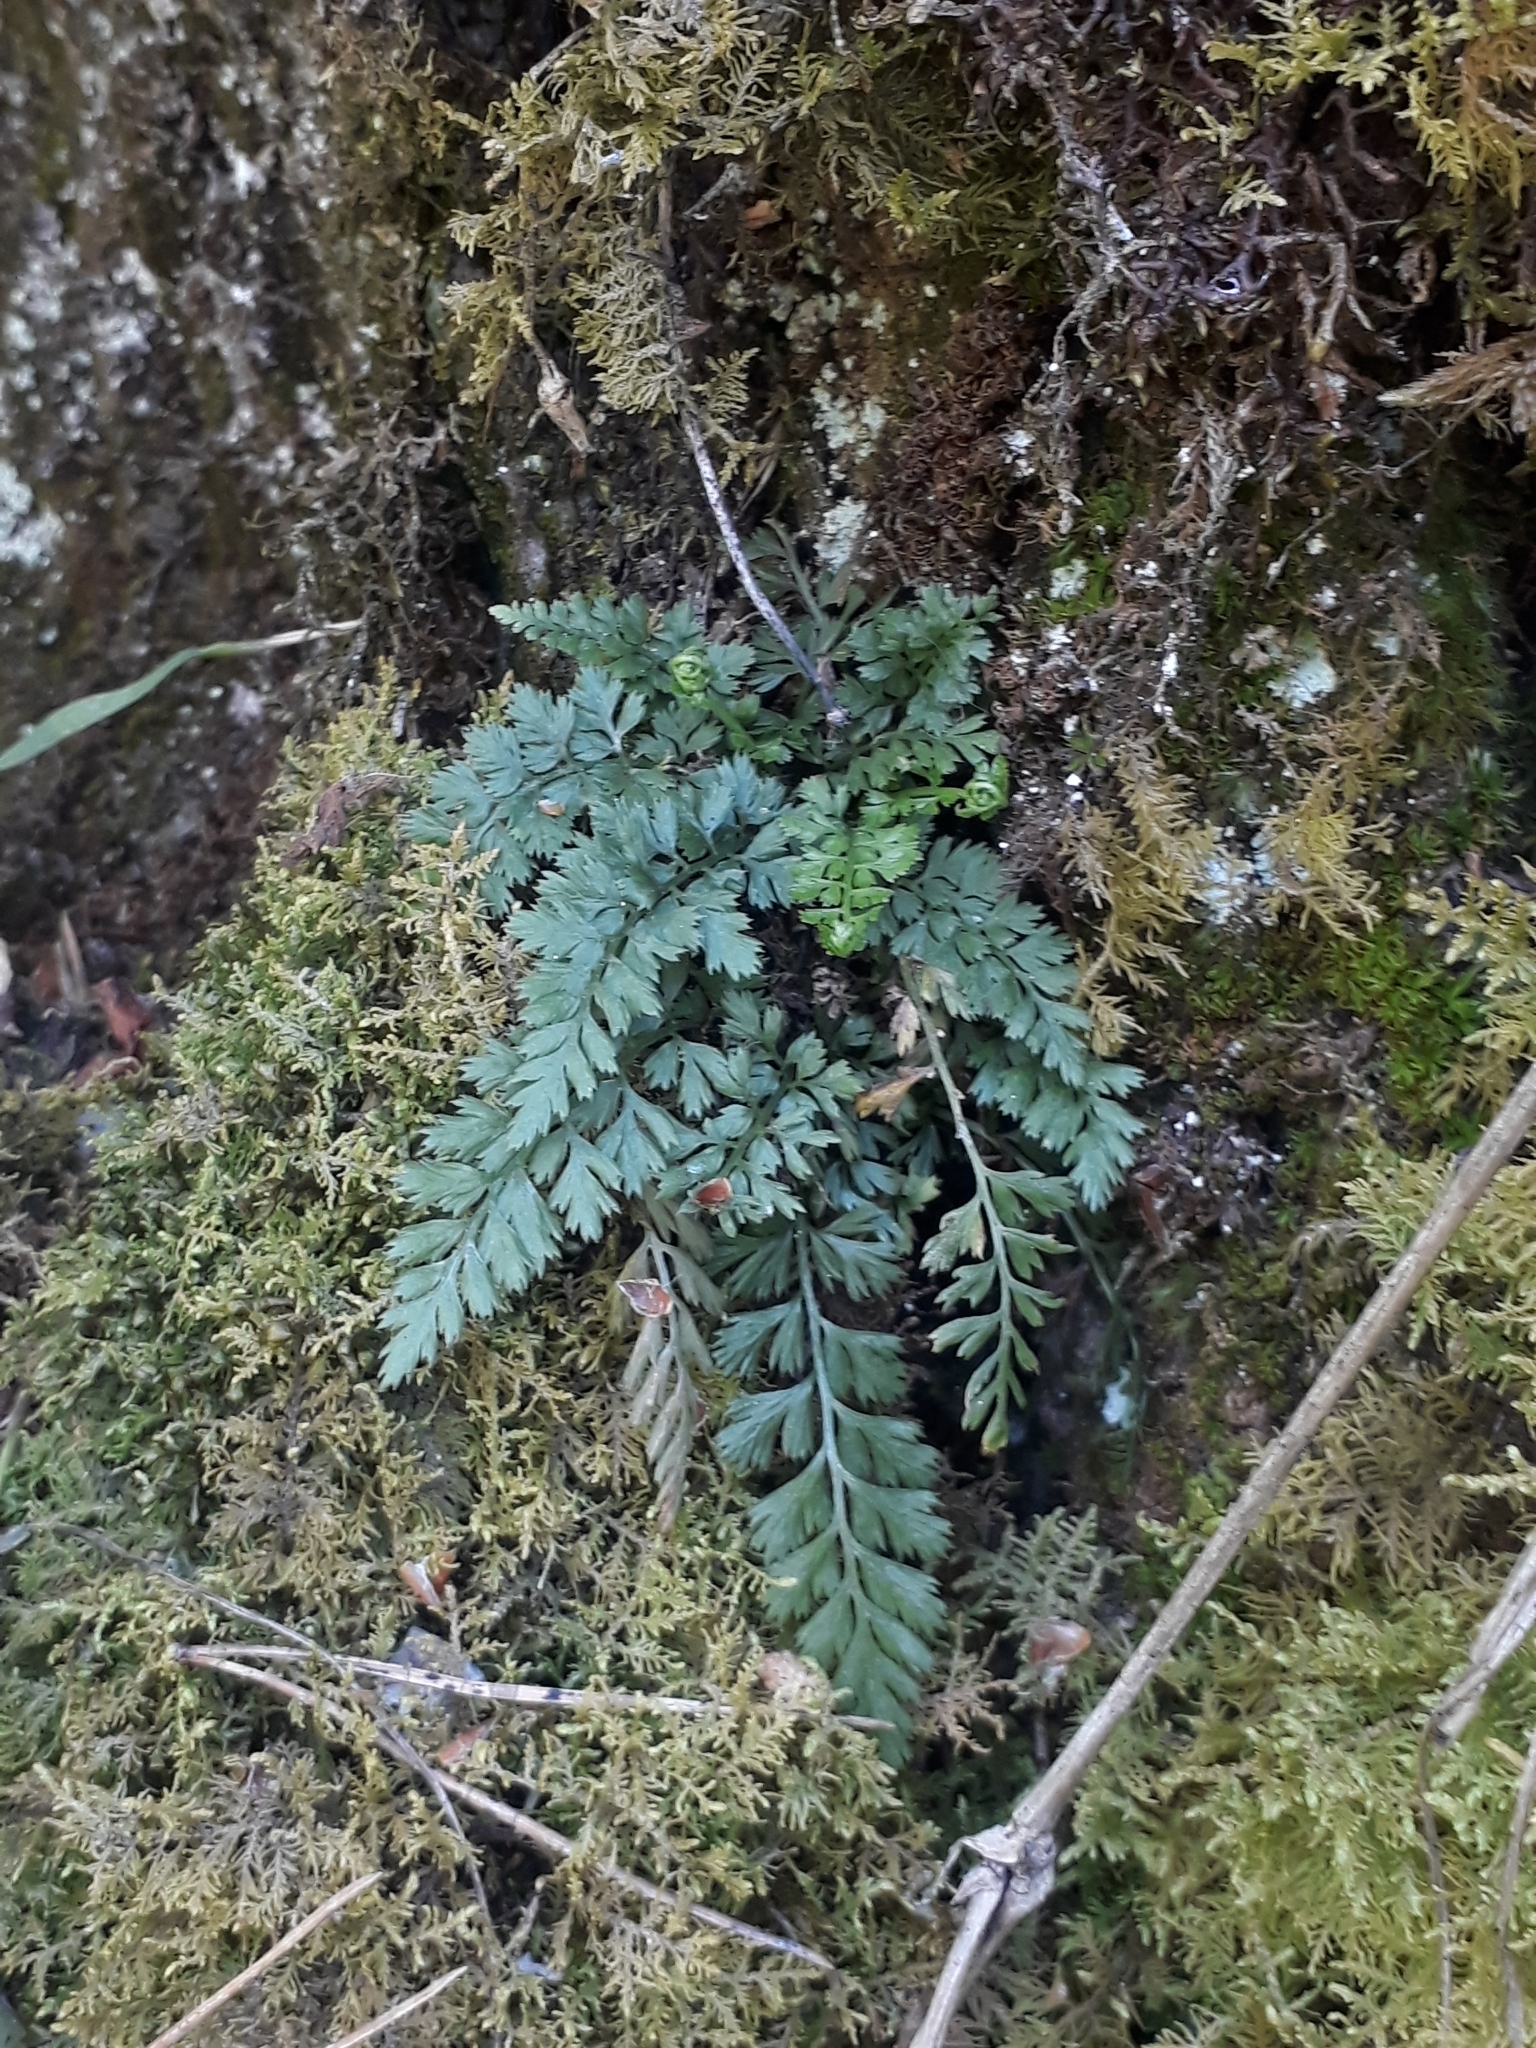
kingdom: Plantae
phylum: Tracheophyta
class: Polypodiopsida
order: Polypodiales
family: Aspleniaceae
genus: Asplenium
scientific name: Asplenium altajense
